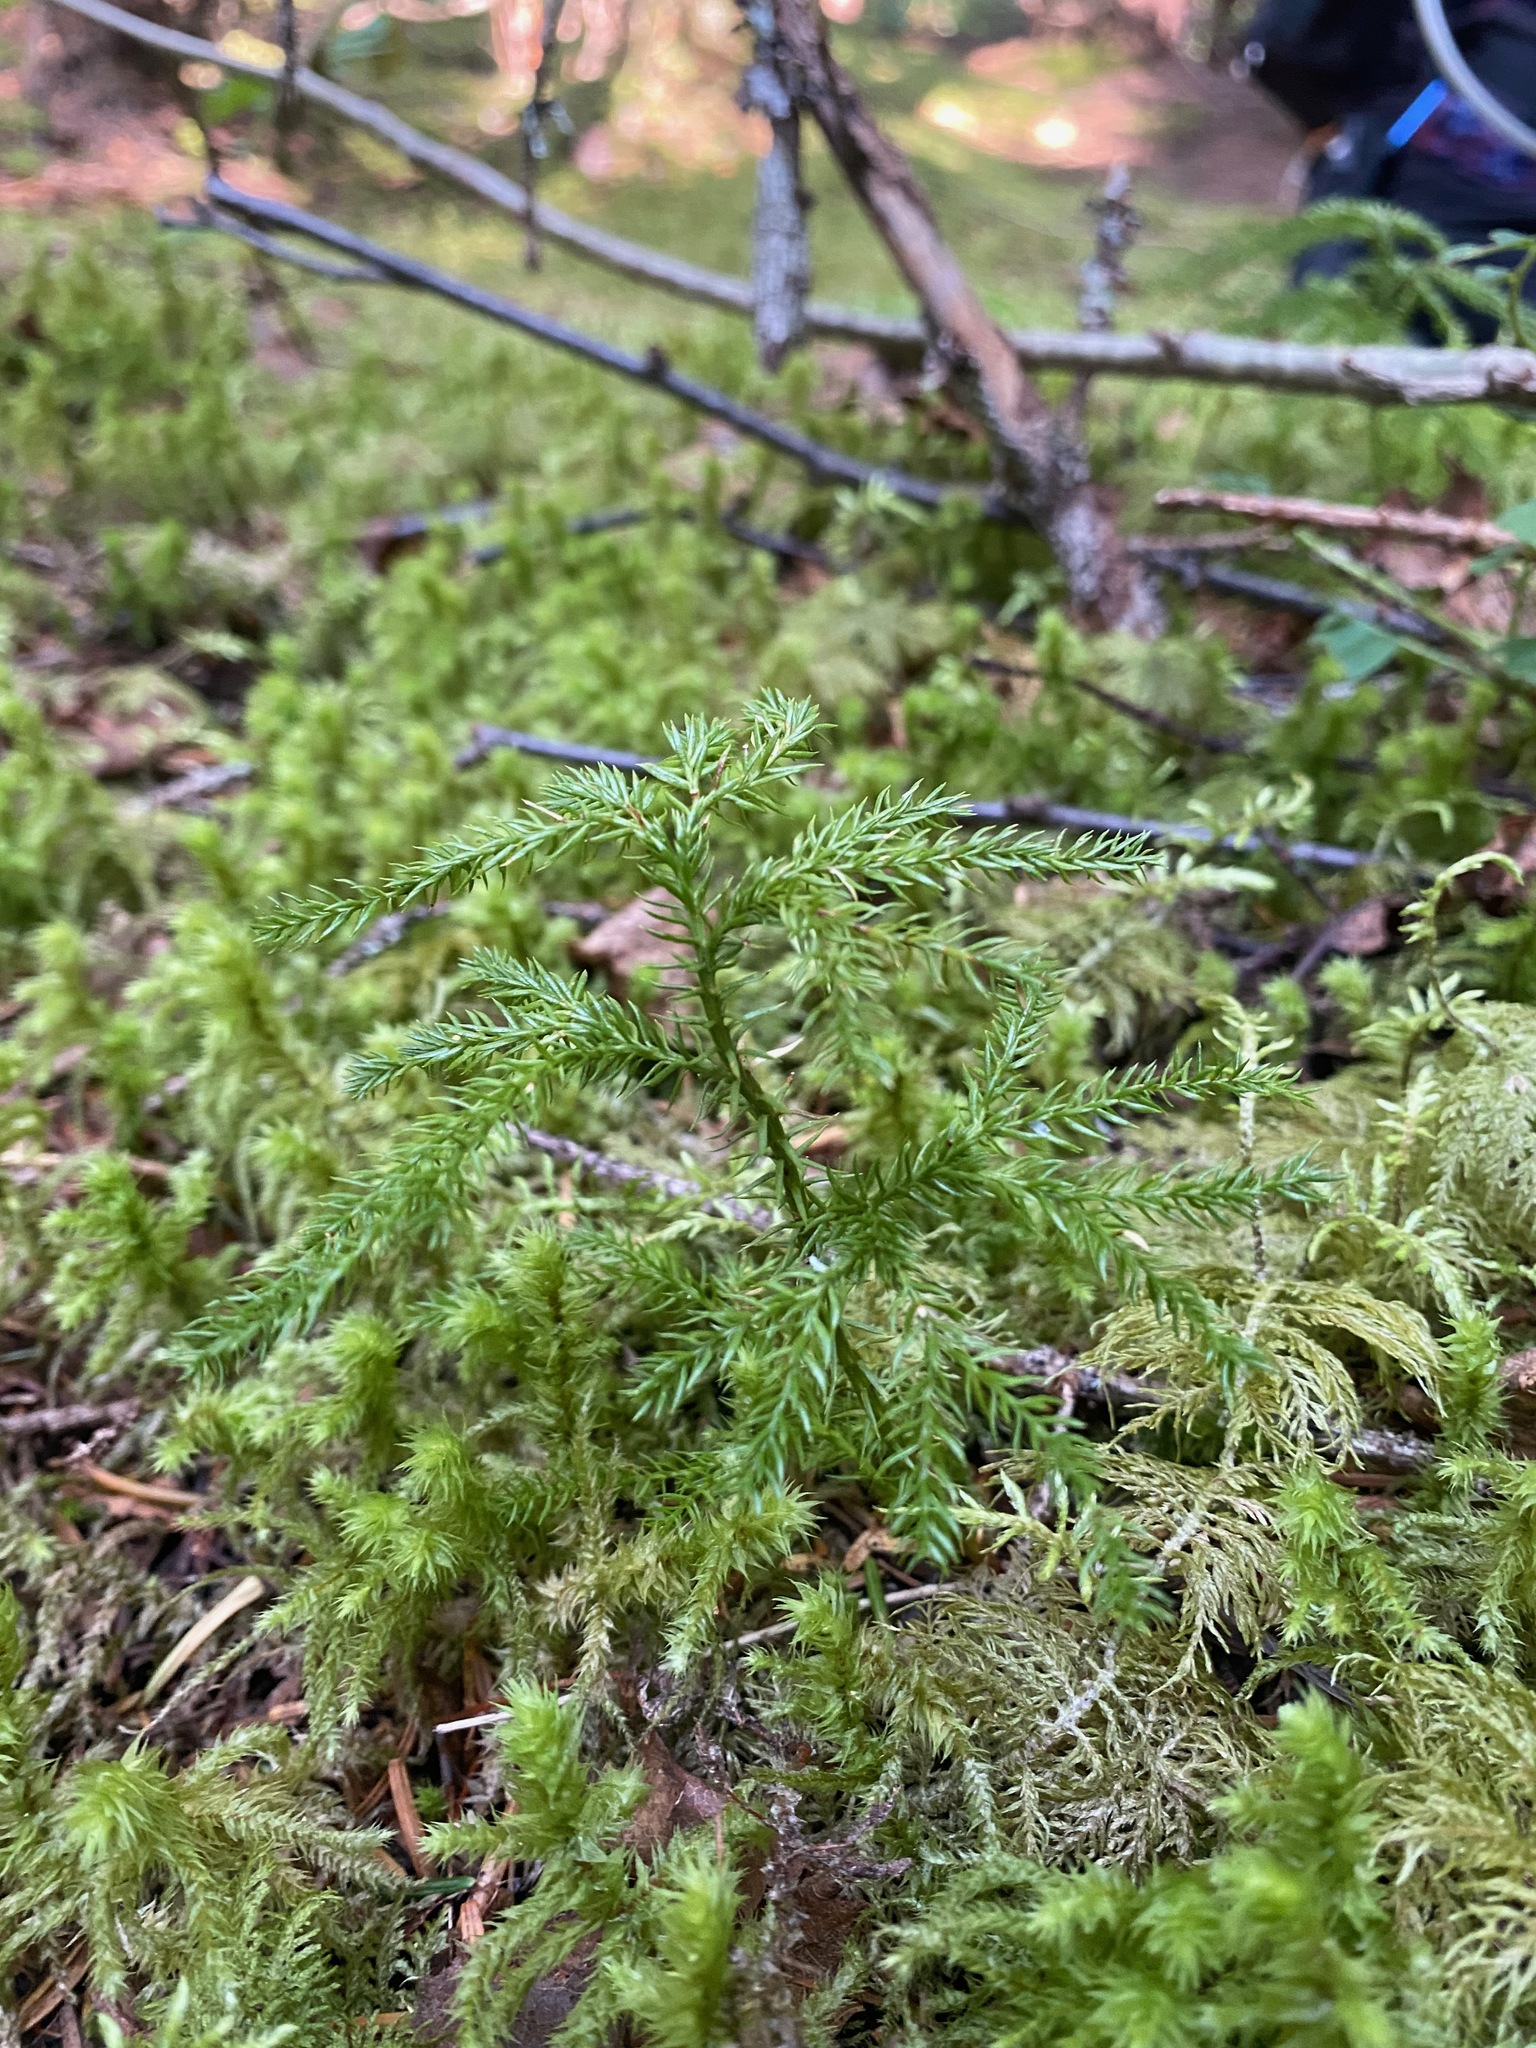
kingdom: Plantae
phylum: Tracheophyta
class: Lycopodiopsida
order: Lycopodiales
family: Lycopodiaceae
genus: Dendrolycopodium
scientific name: Dendrolycopodium dendroideum
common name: Northern tree-clubmoss
